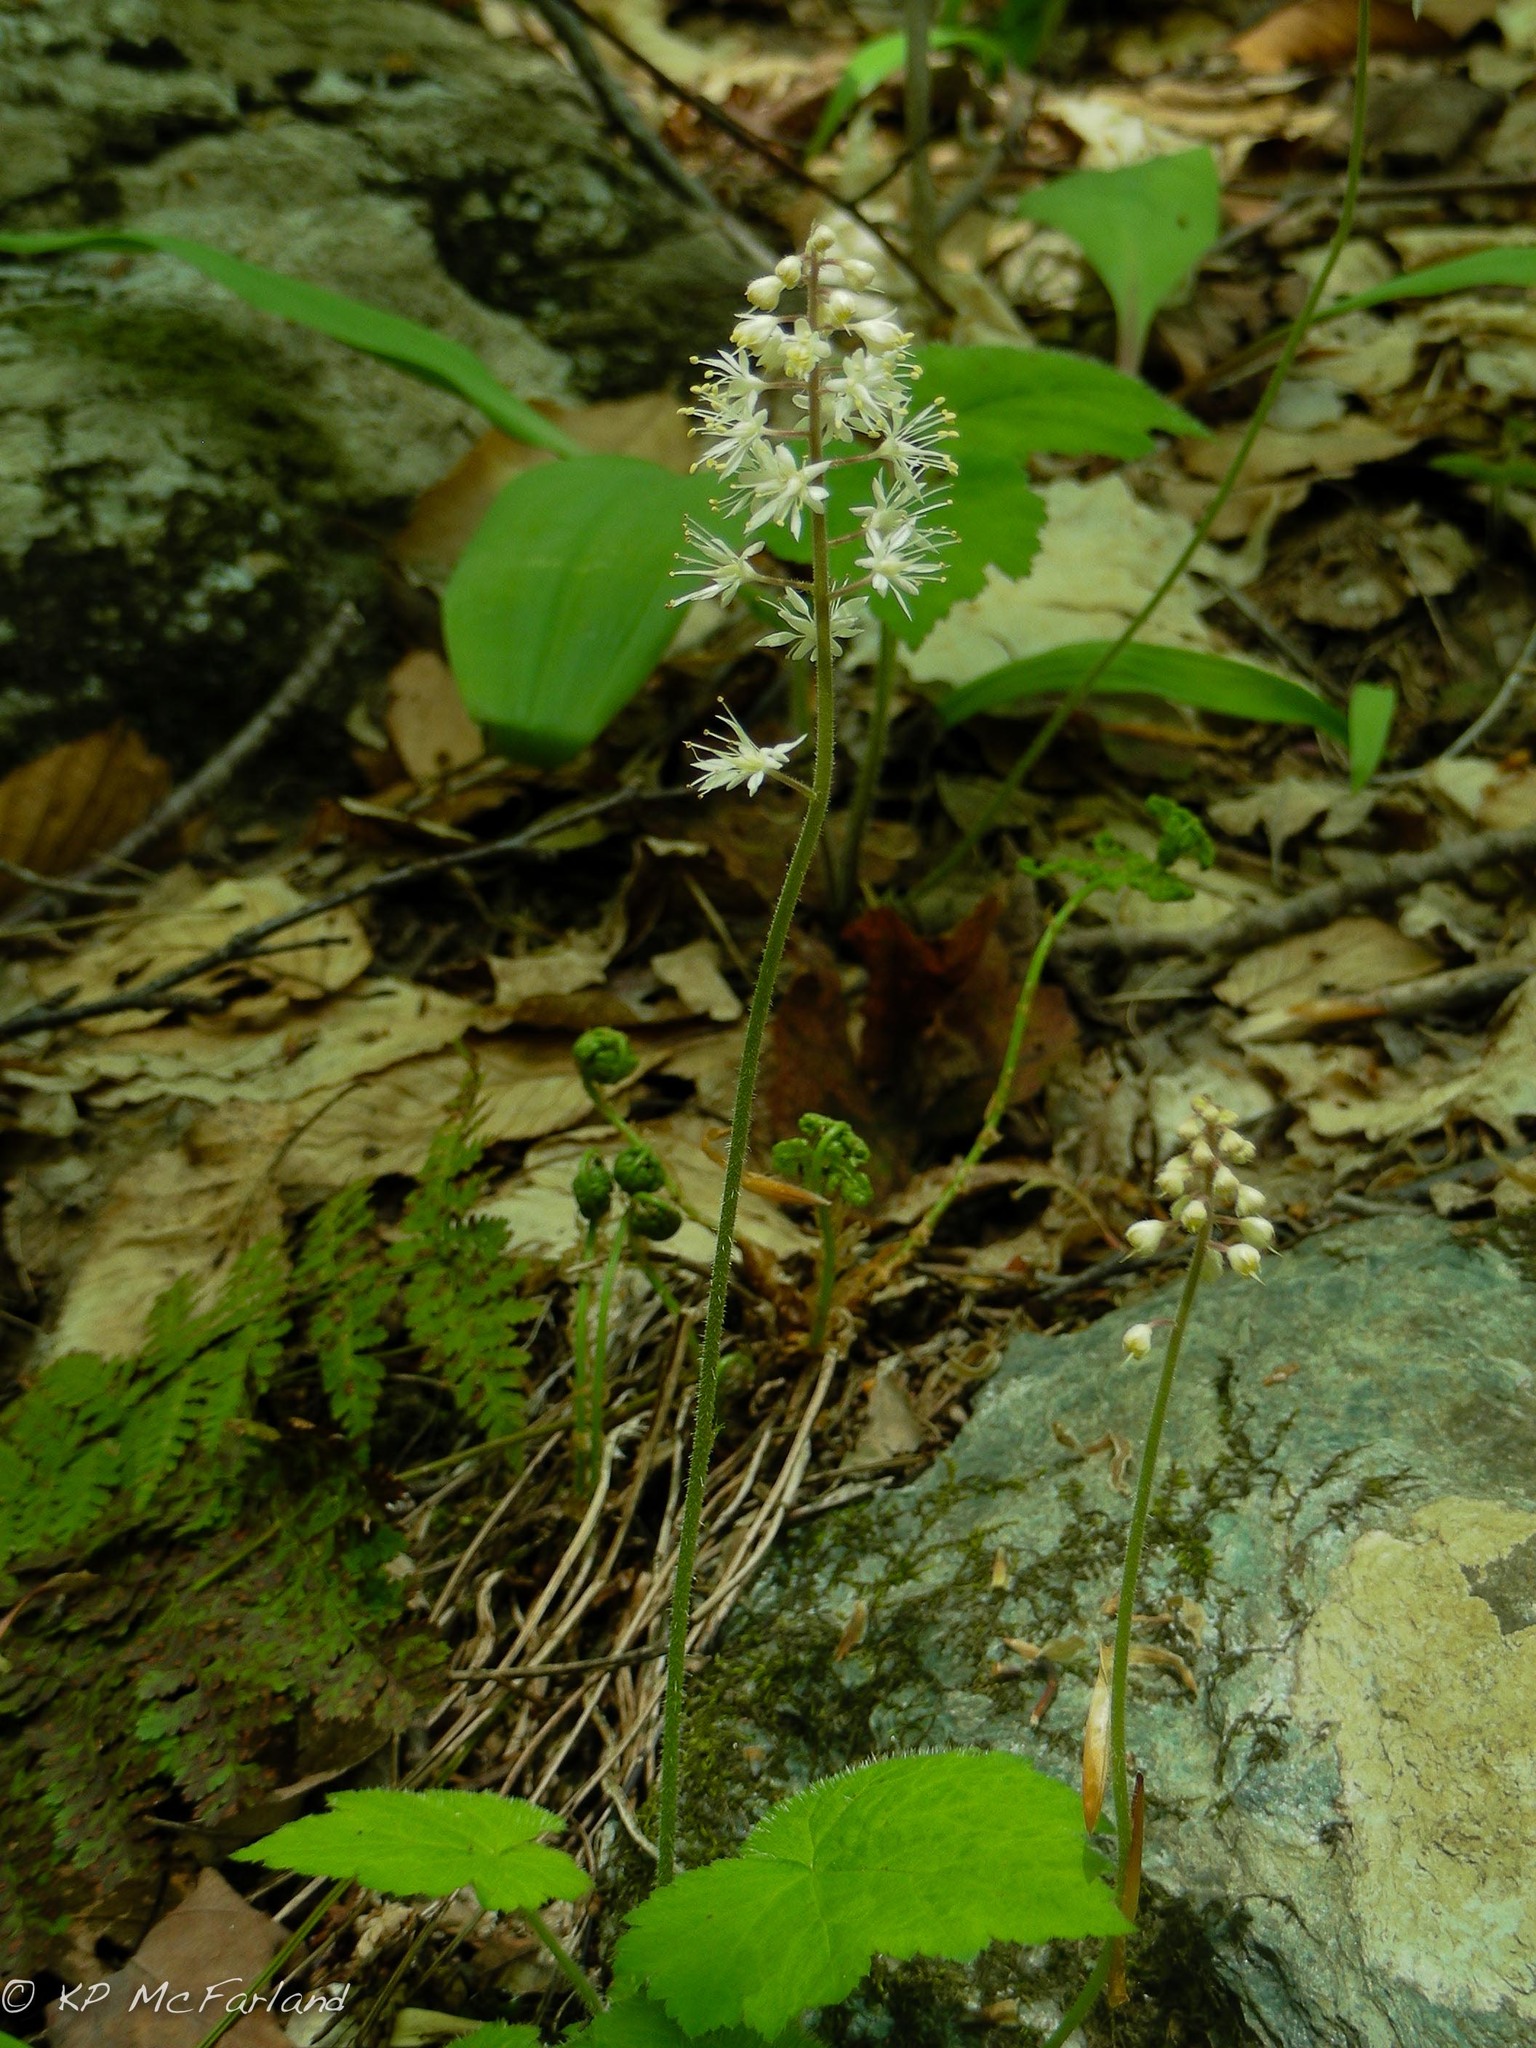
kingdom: Plantae
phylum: Tracheophyta
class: Magnoliopsida
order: Saxifragales
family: Saxifragaceae
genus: Tiarella
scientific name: Tiarella stolonifera
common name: Stoloniferous foamflower
